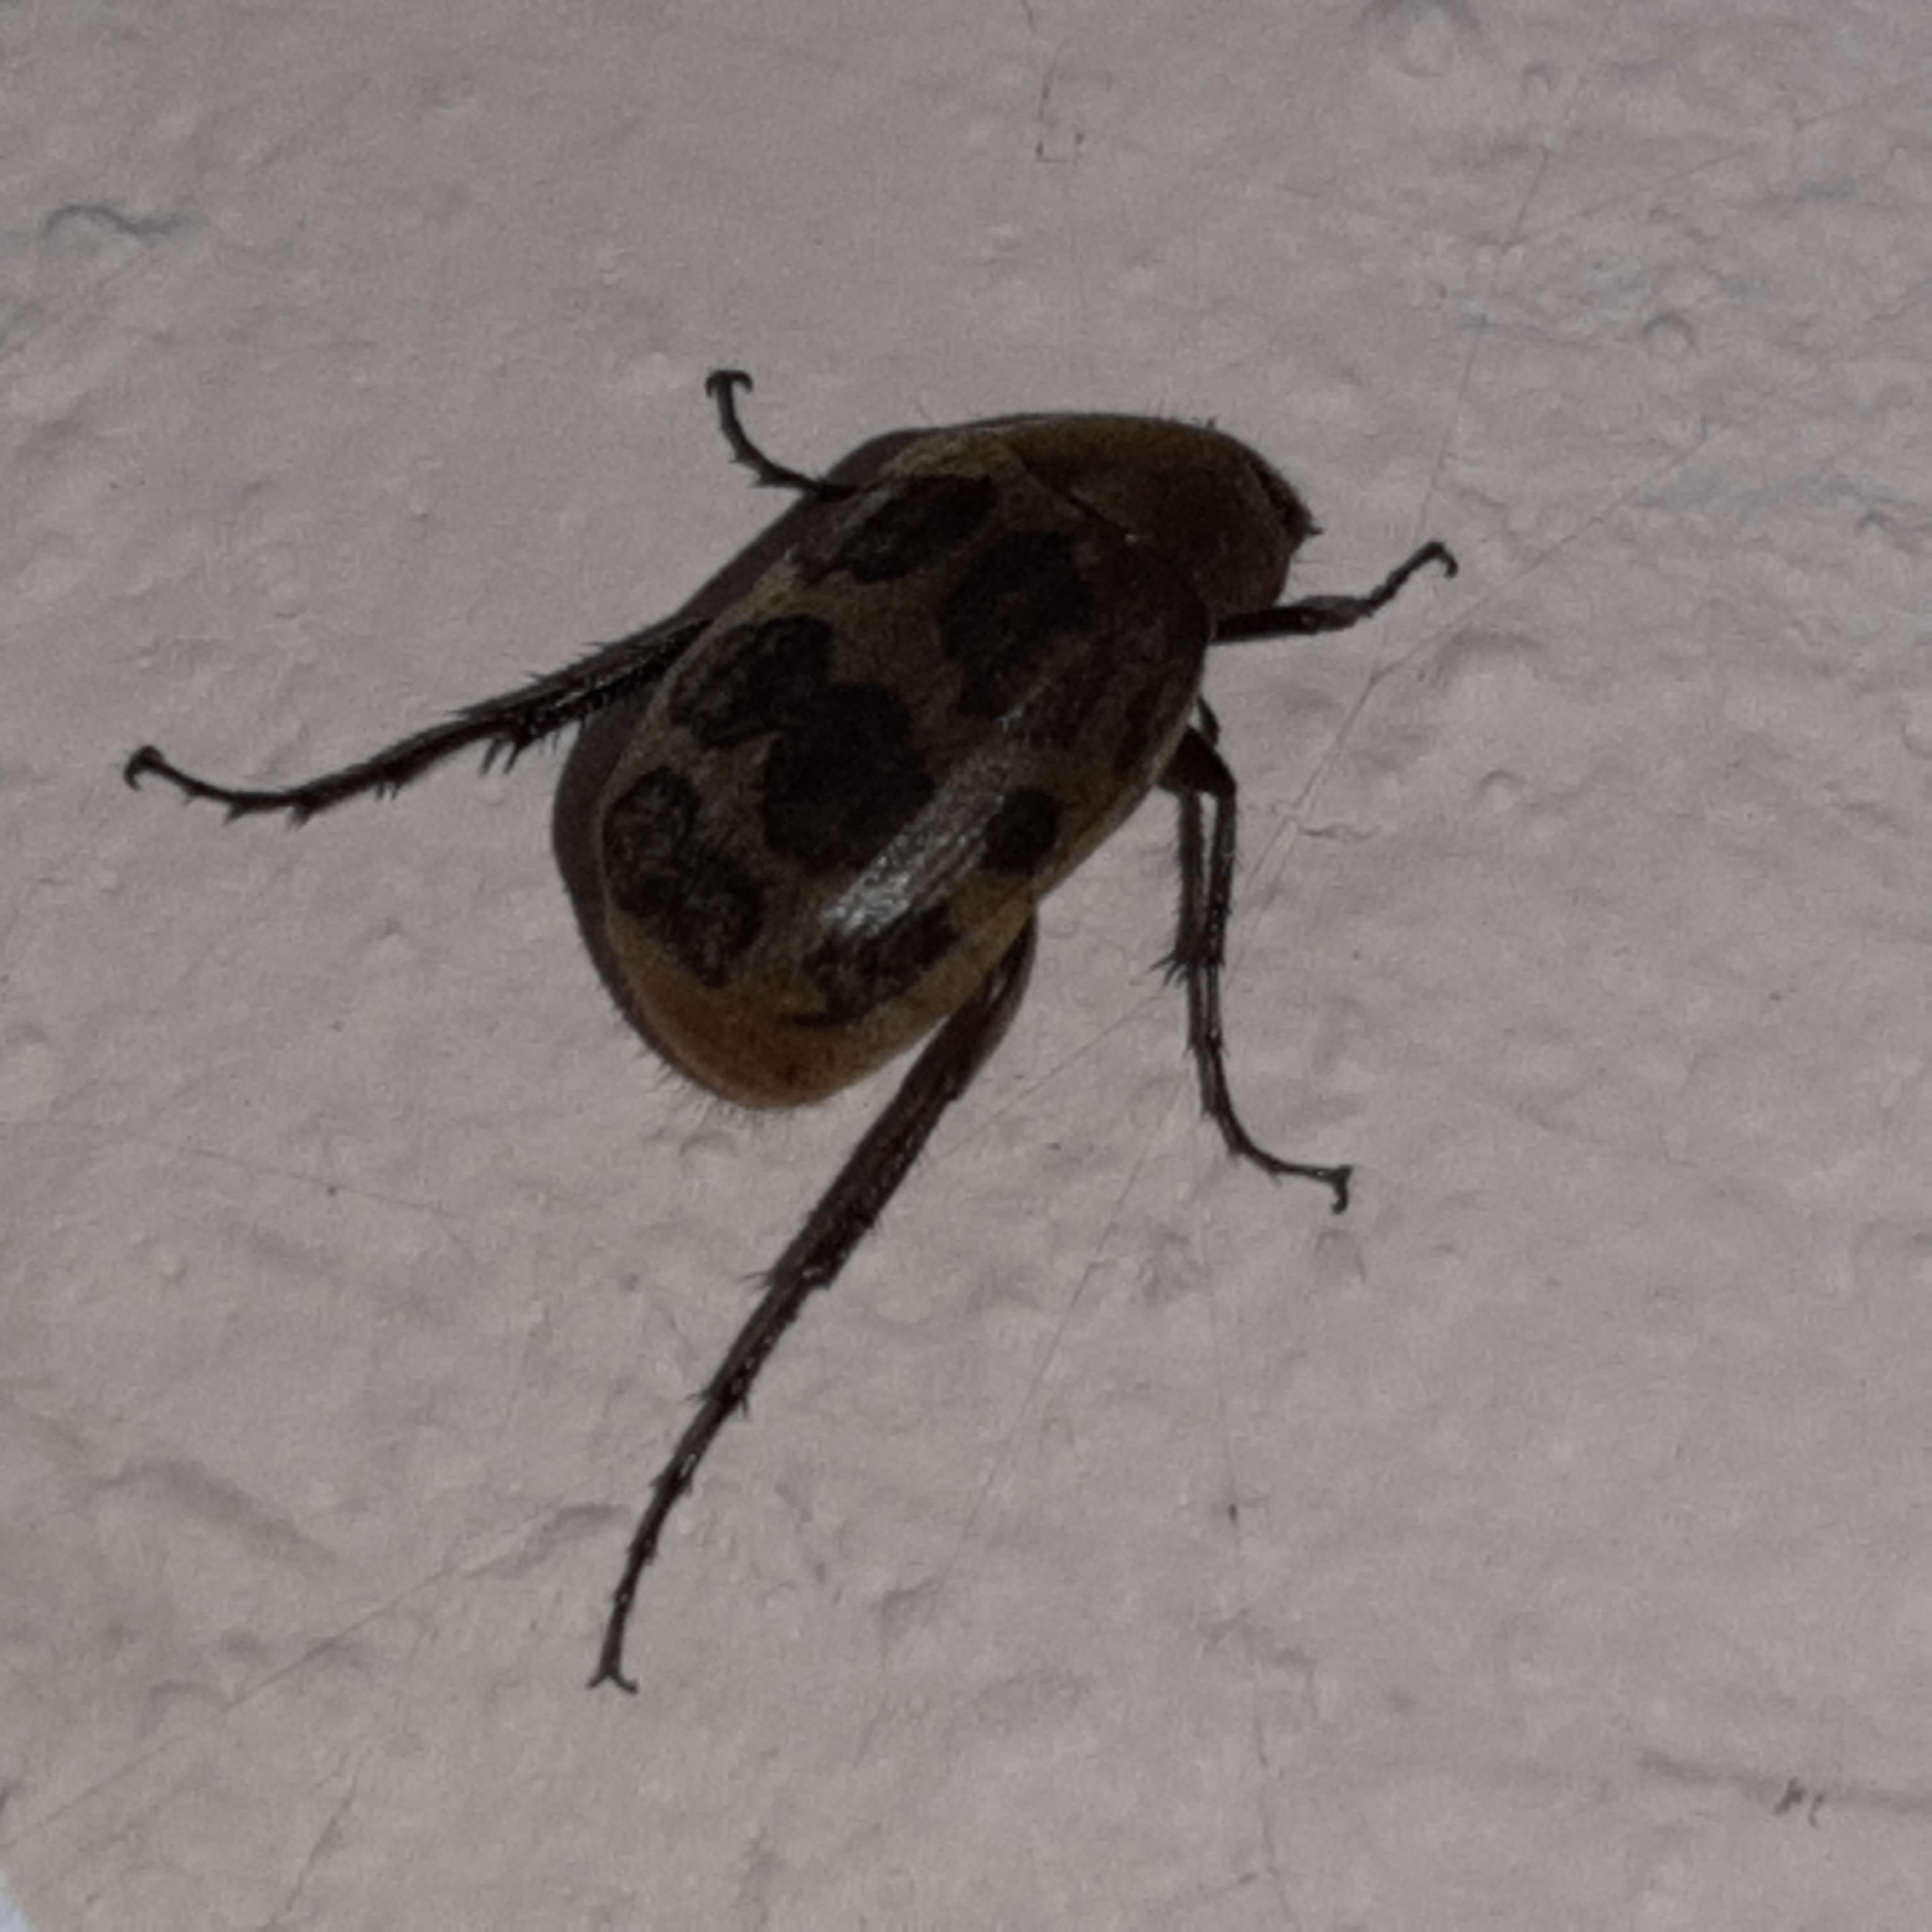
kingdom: Animalia
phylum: Arthropoda
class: Insecta
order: Coleoptera
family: Scarabaeidae
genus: Isonychus
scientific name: Isonychus pictus
